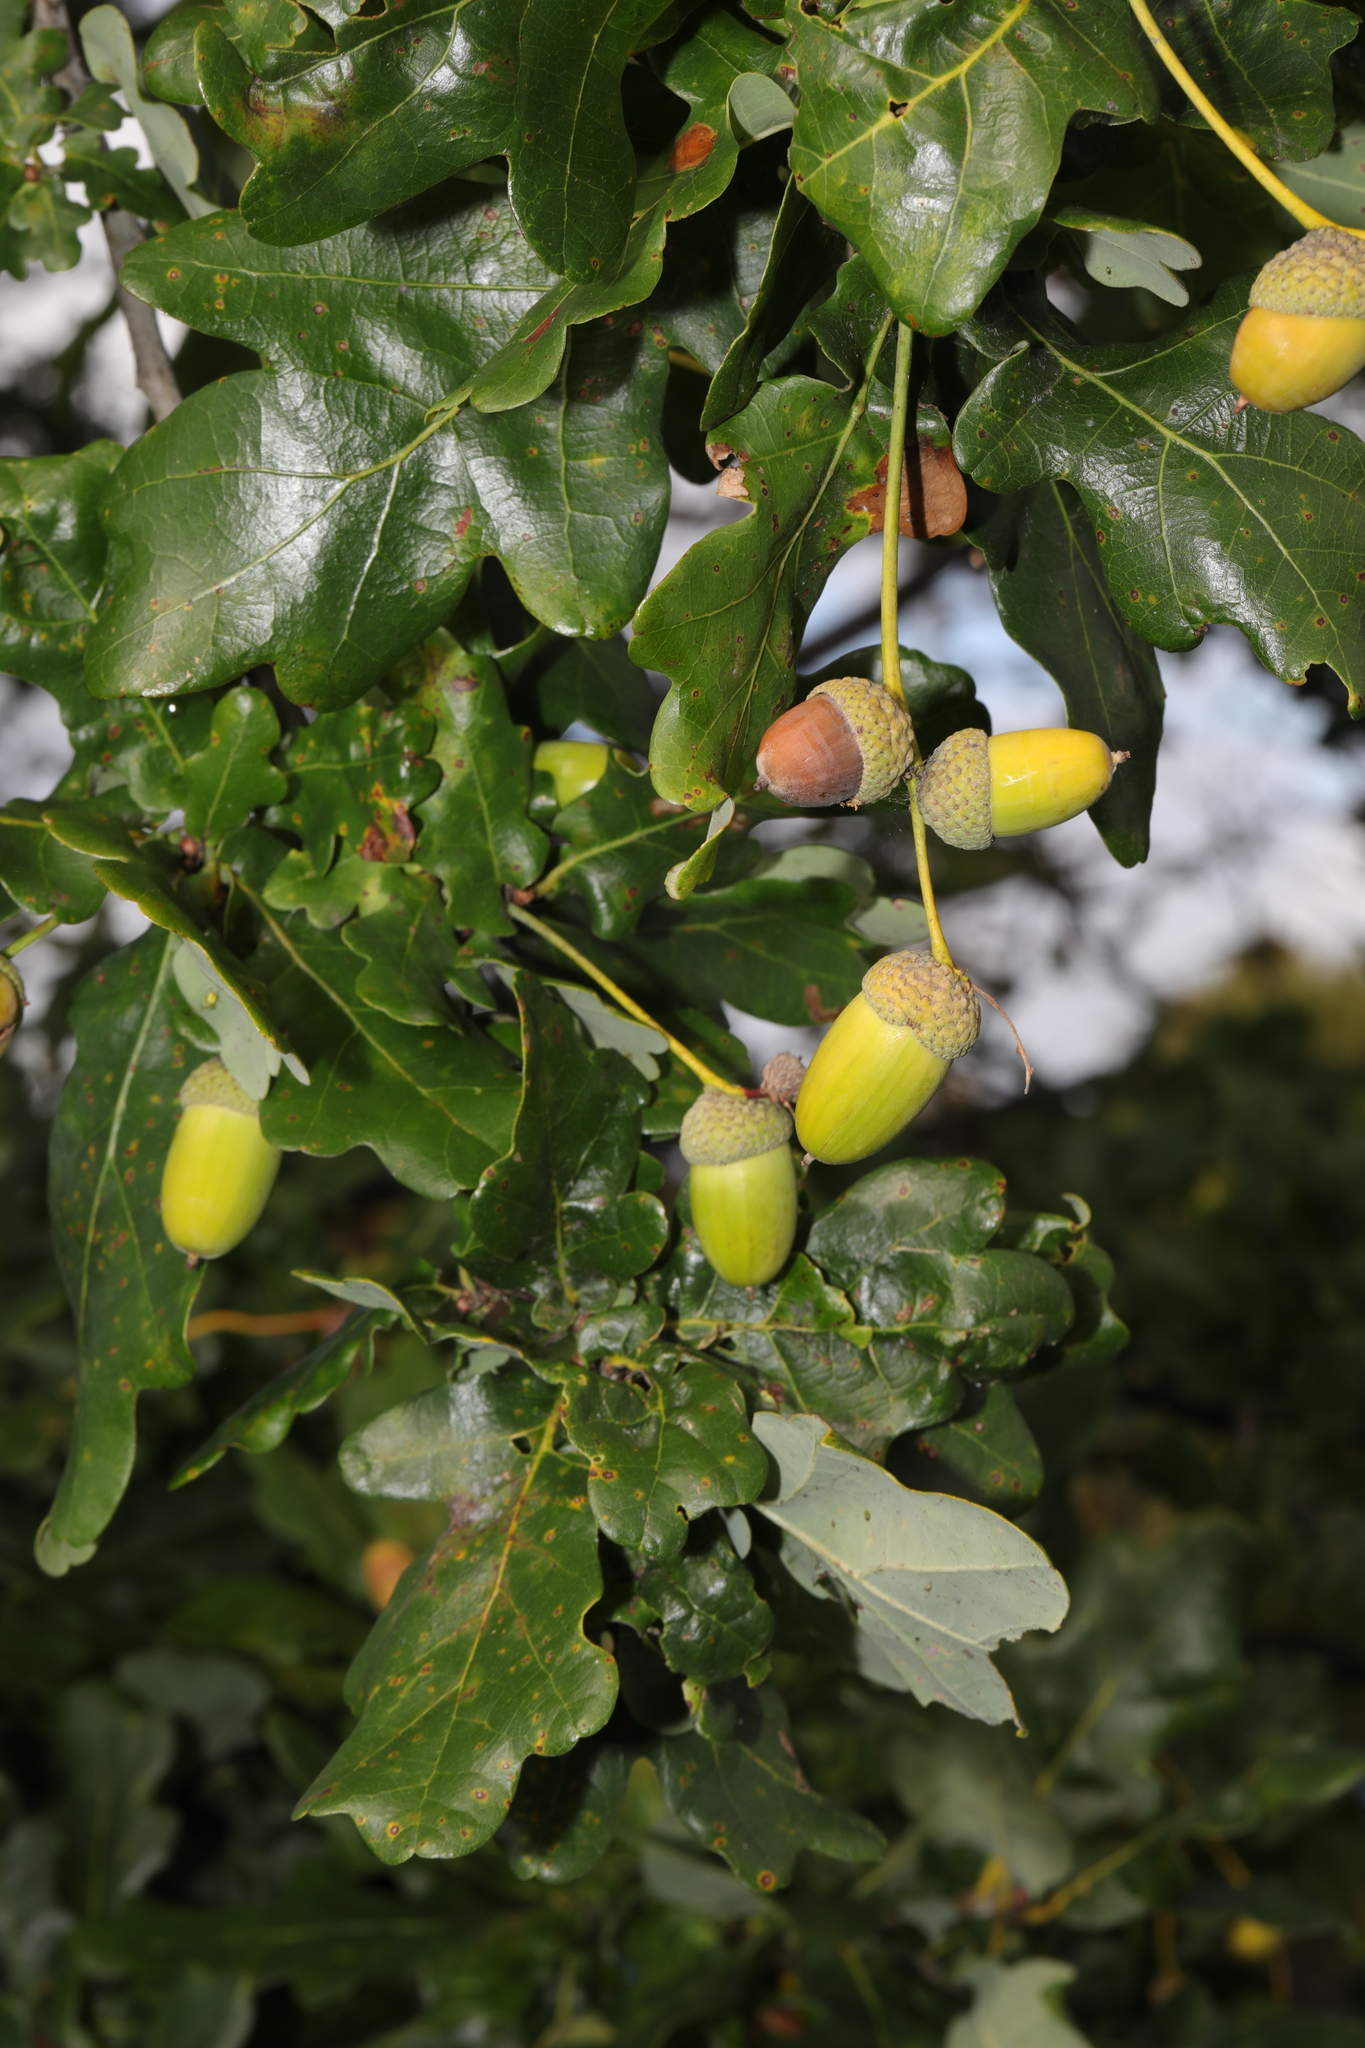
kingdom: Plantae
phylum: Tracheophyta
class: Magnoliopsida
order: Fagales
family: Fagaceae
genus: Quercus
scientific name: Quercus robur
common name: Pedunculate oak
